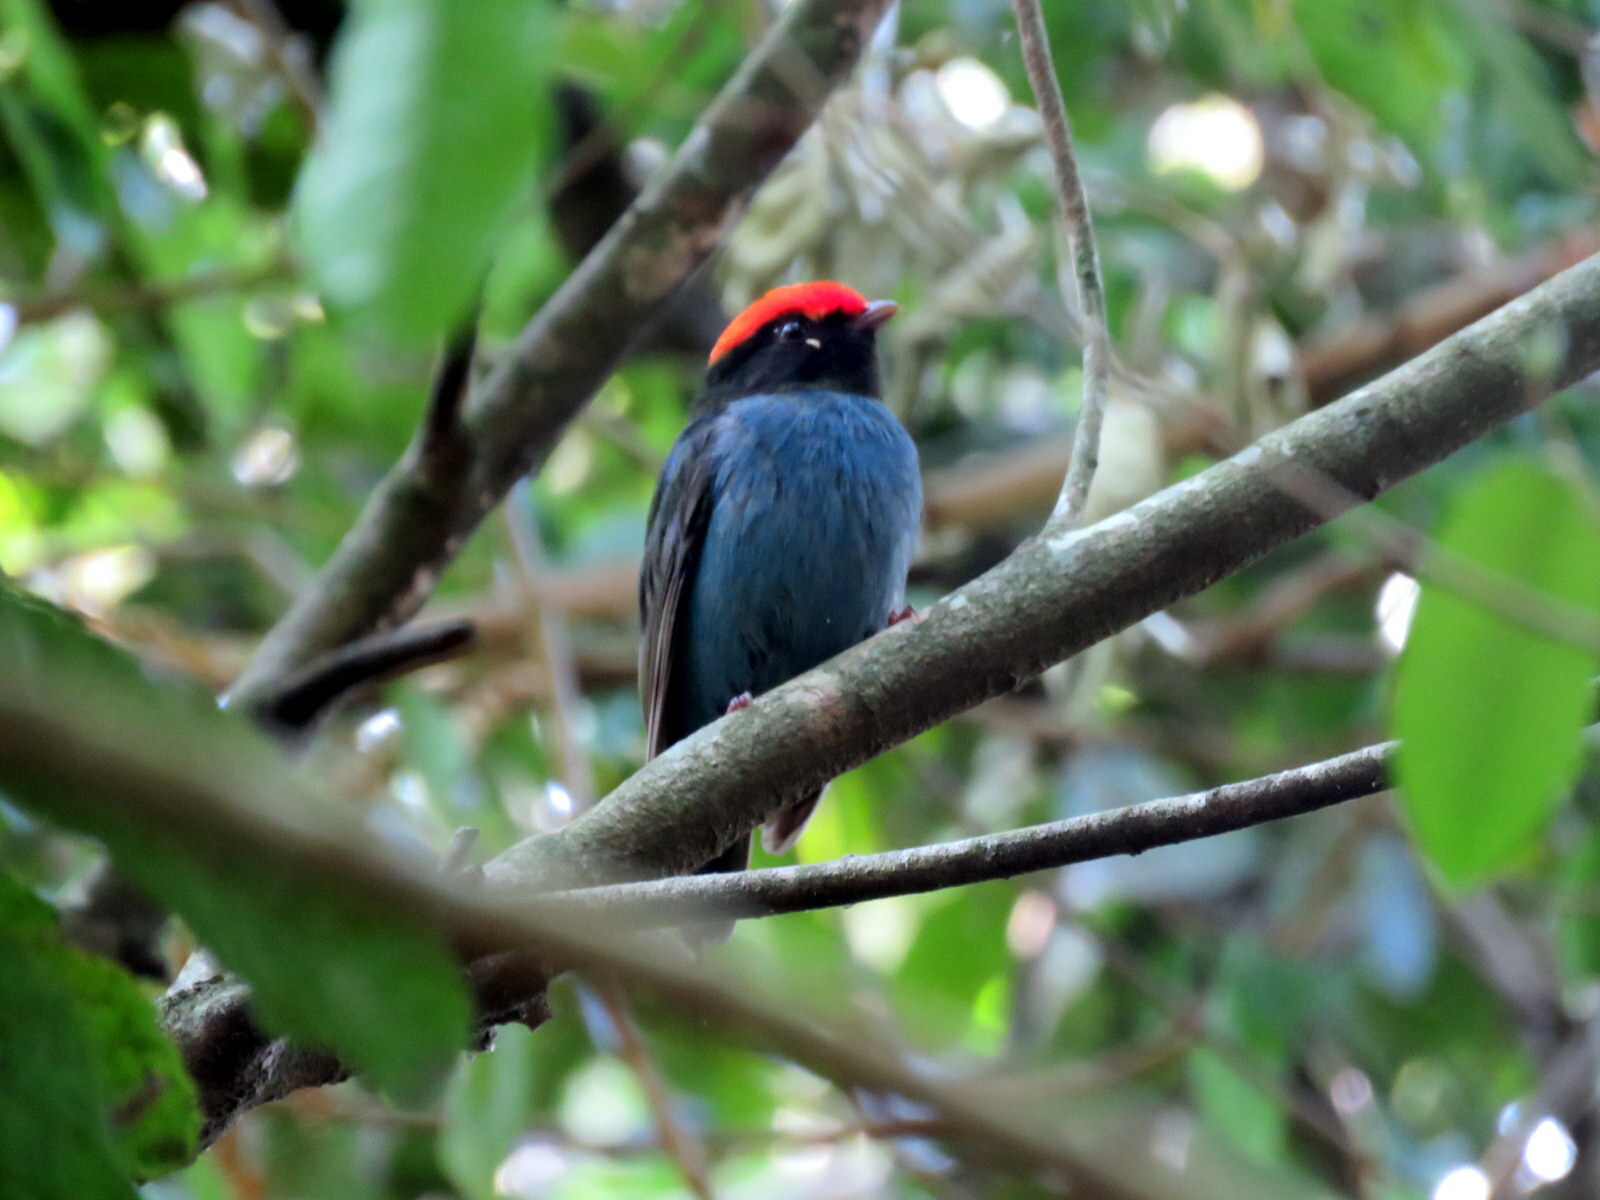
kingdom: Animalia
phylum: Chordata
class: Aves
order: Passeriformes
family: Pipridae
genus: Chiroxiphia
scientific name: Chiroxiphia caudata
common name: Blue manakin
